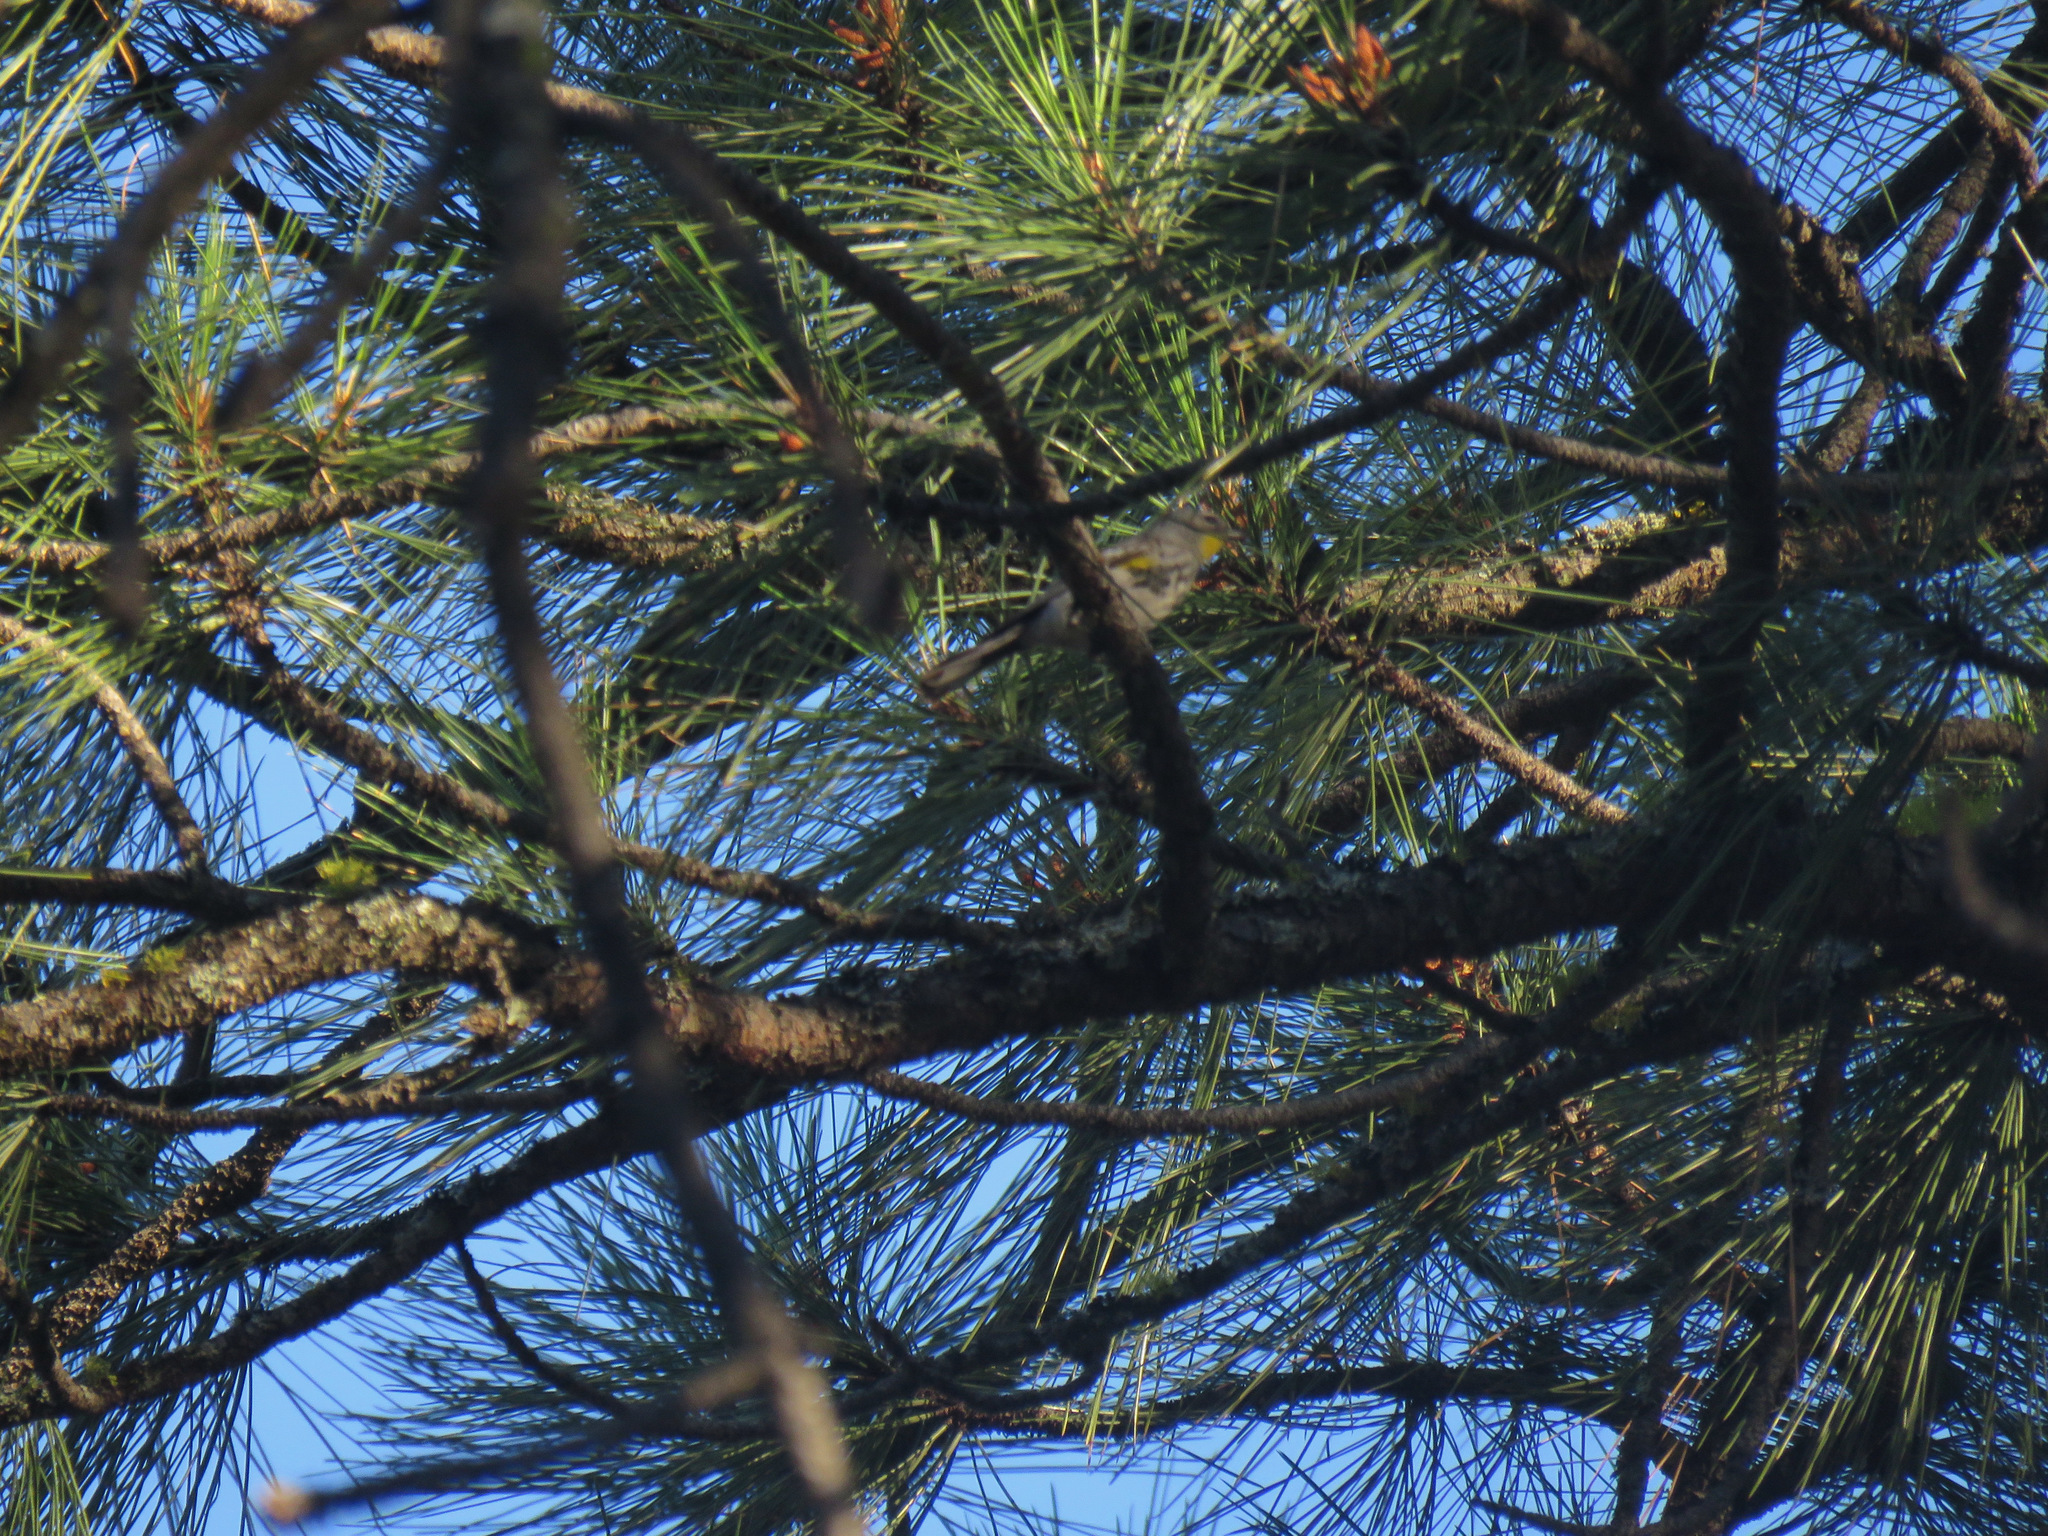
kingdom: Animalia
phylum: Chordata
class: Aves
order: Passeriformes
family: Parulidae
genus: Setophaga
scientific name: Setophaga coronata
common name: Myrtle warbler
